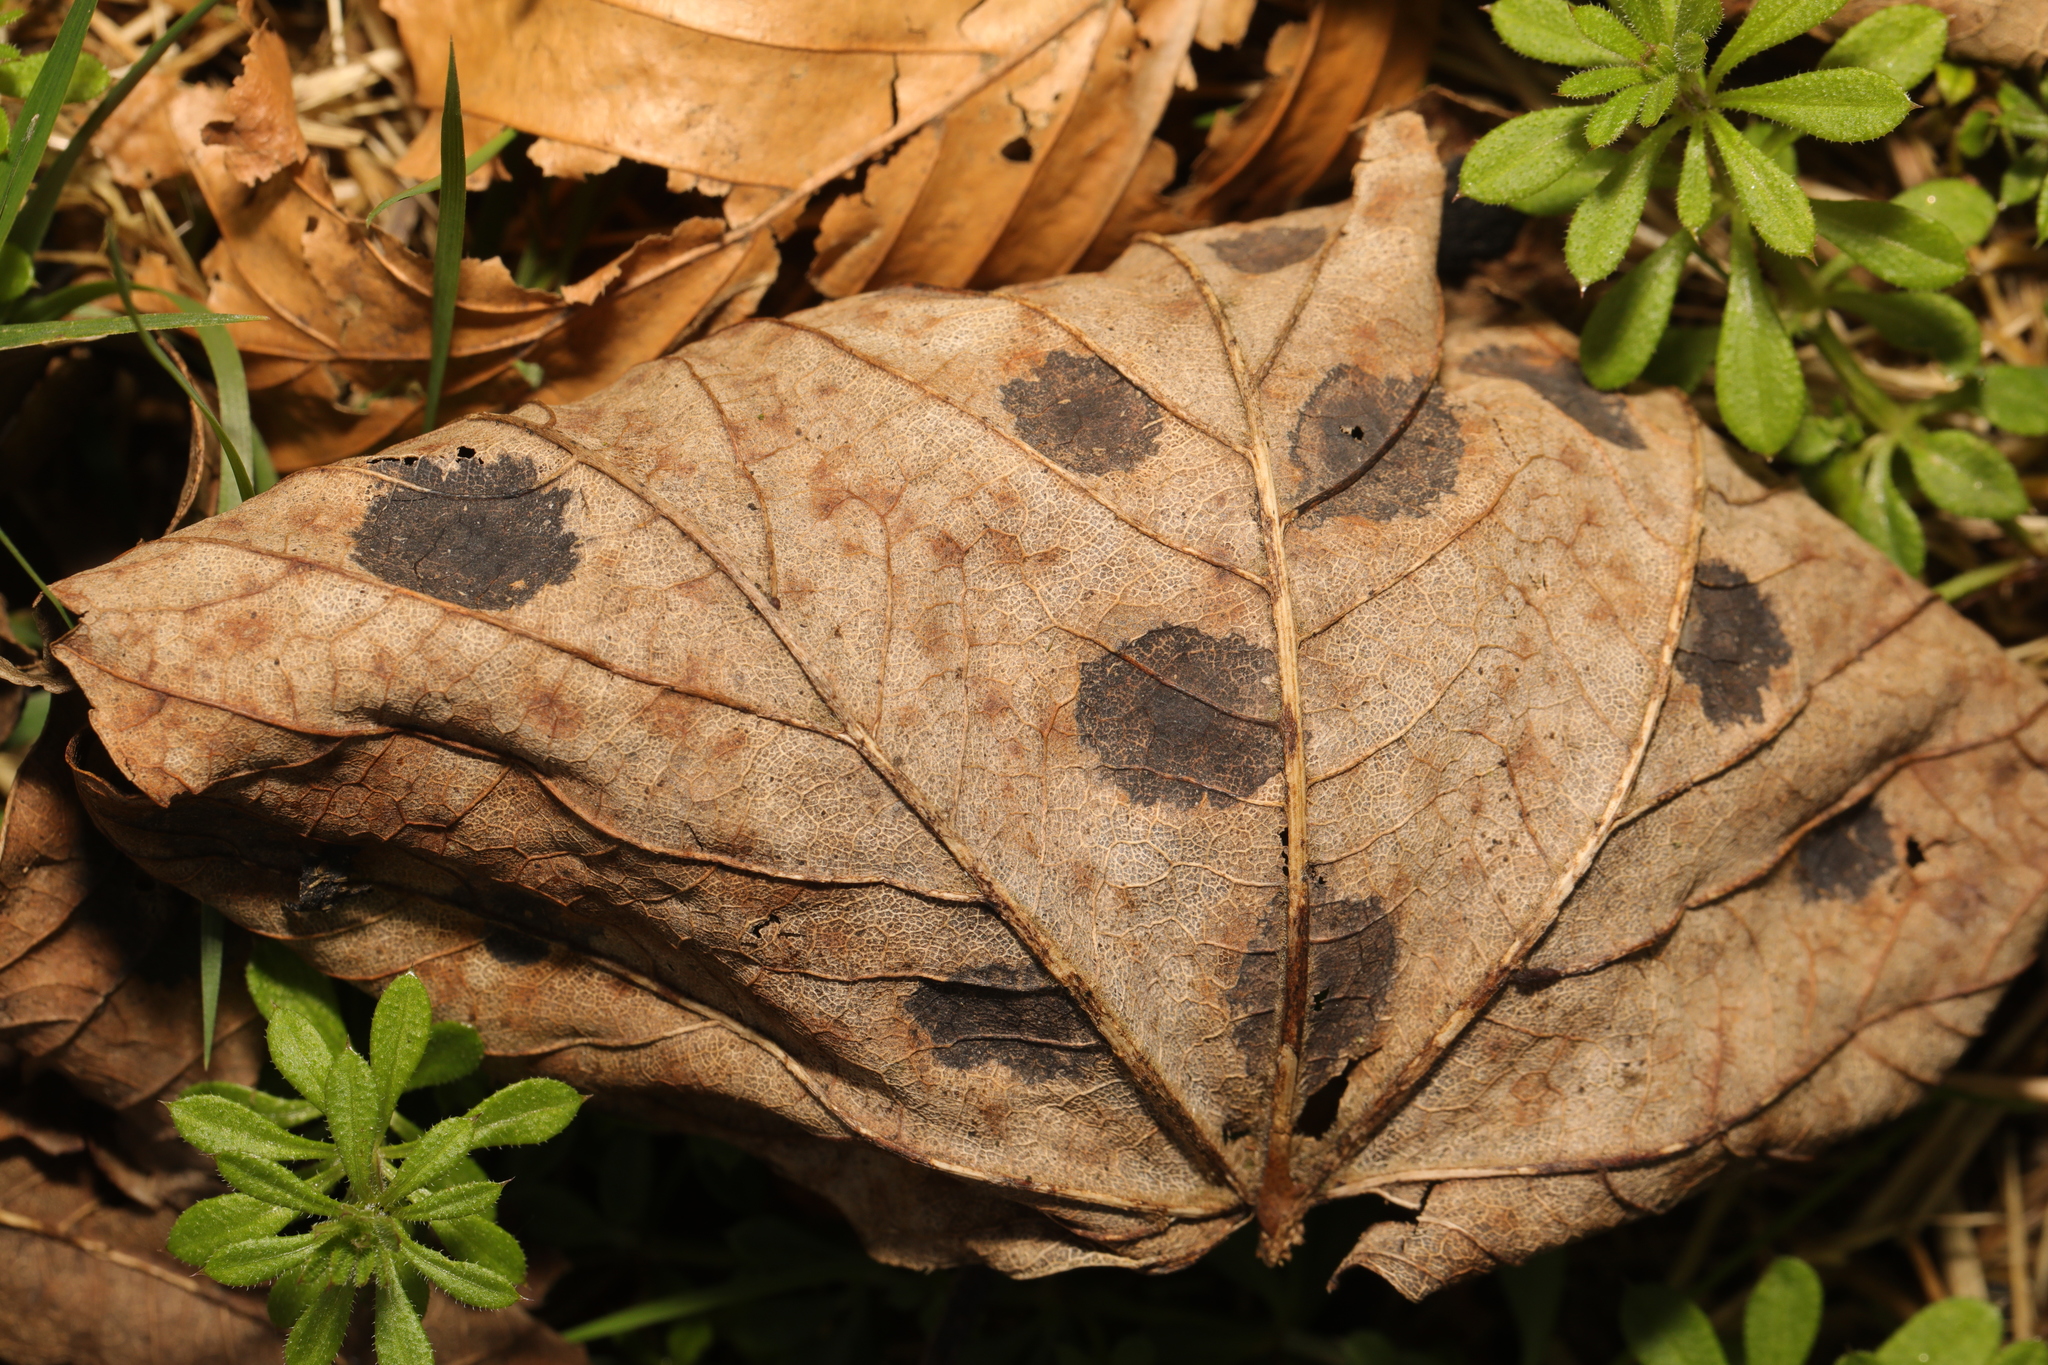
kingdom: Fungi
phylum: Ascomycota
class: Leotiomycetes
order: Rhytismatales
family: Rhytismataceae
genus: Rhytisma
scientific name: Rhytisma acerinum
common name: European tar spot
